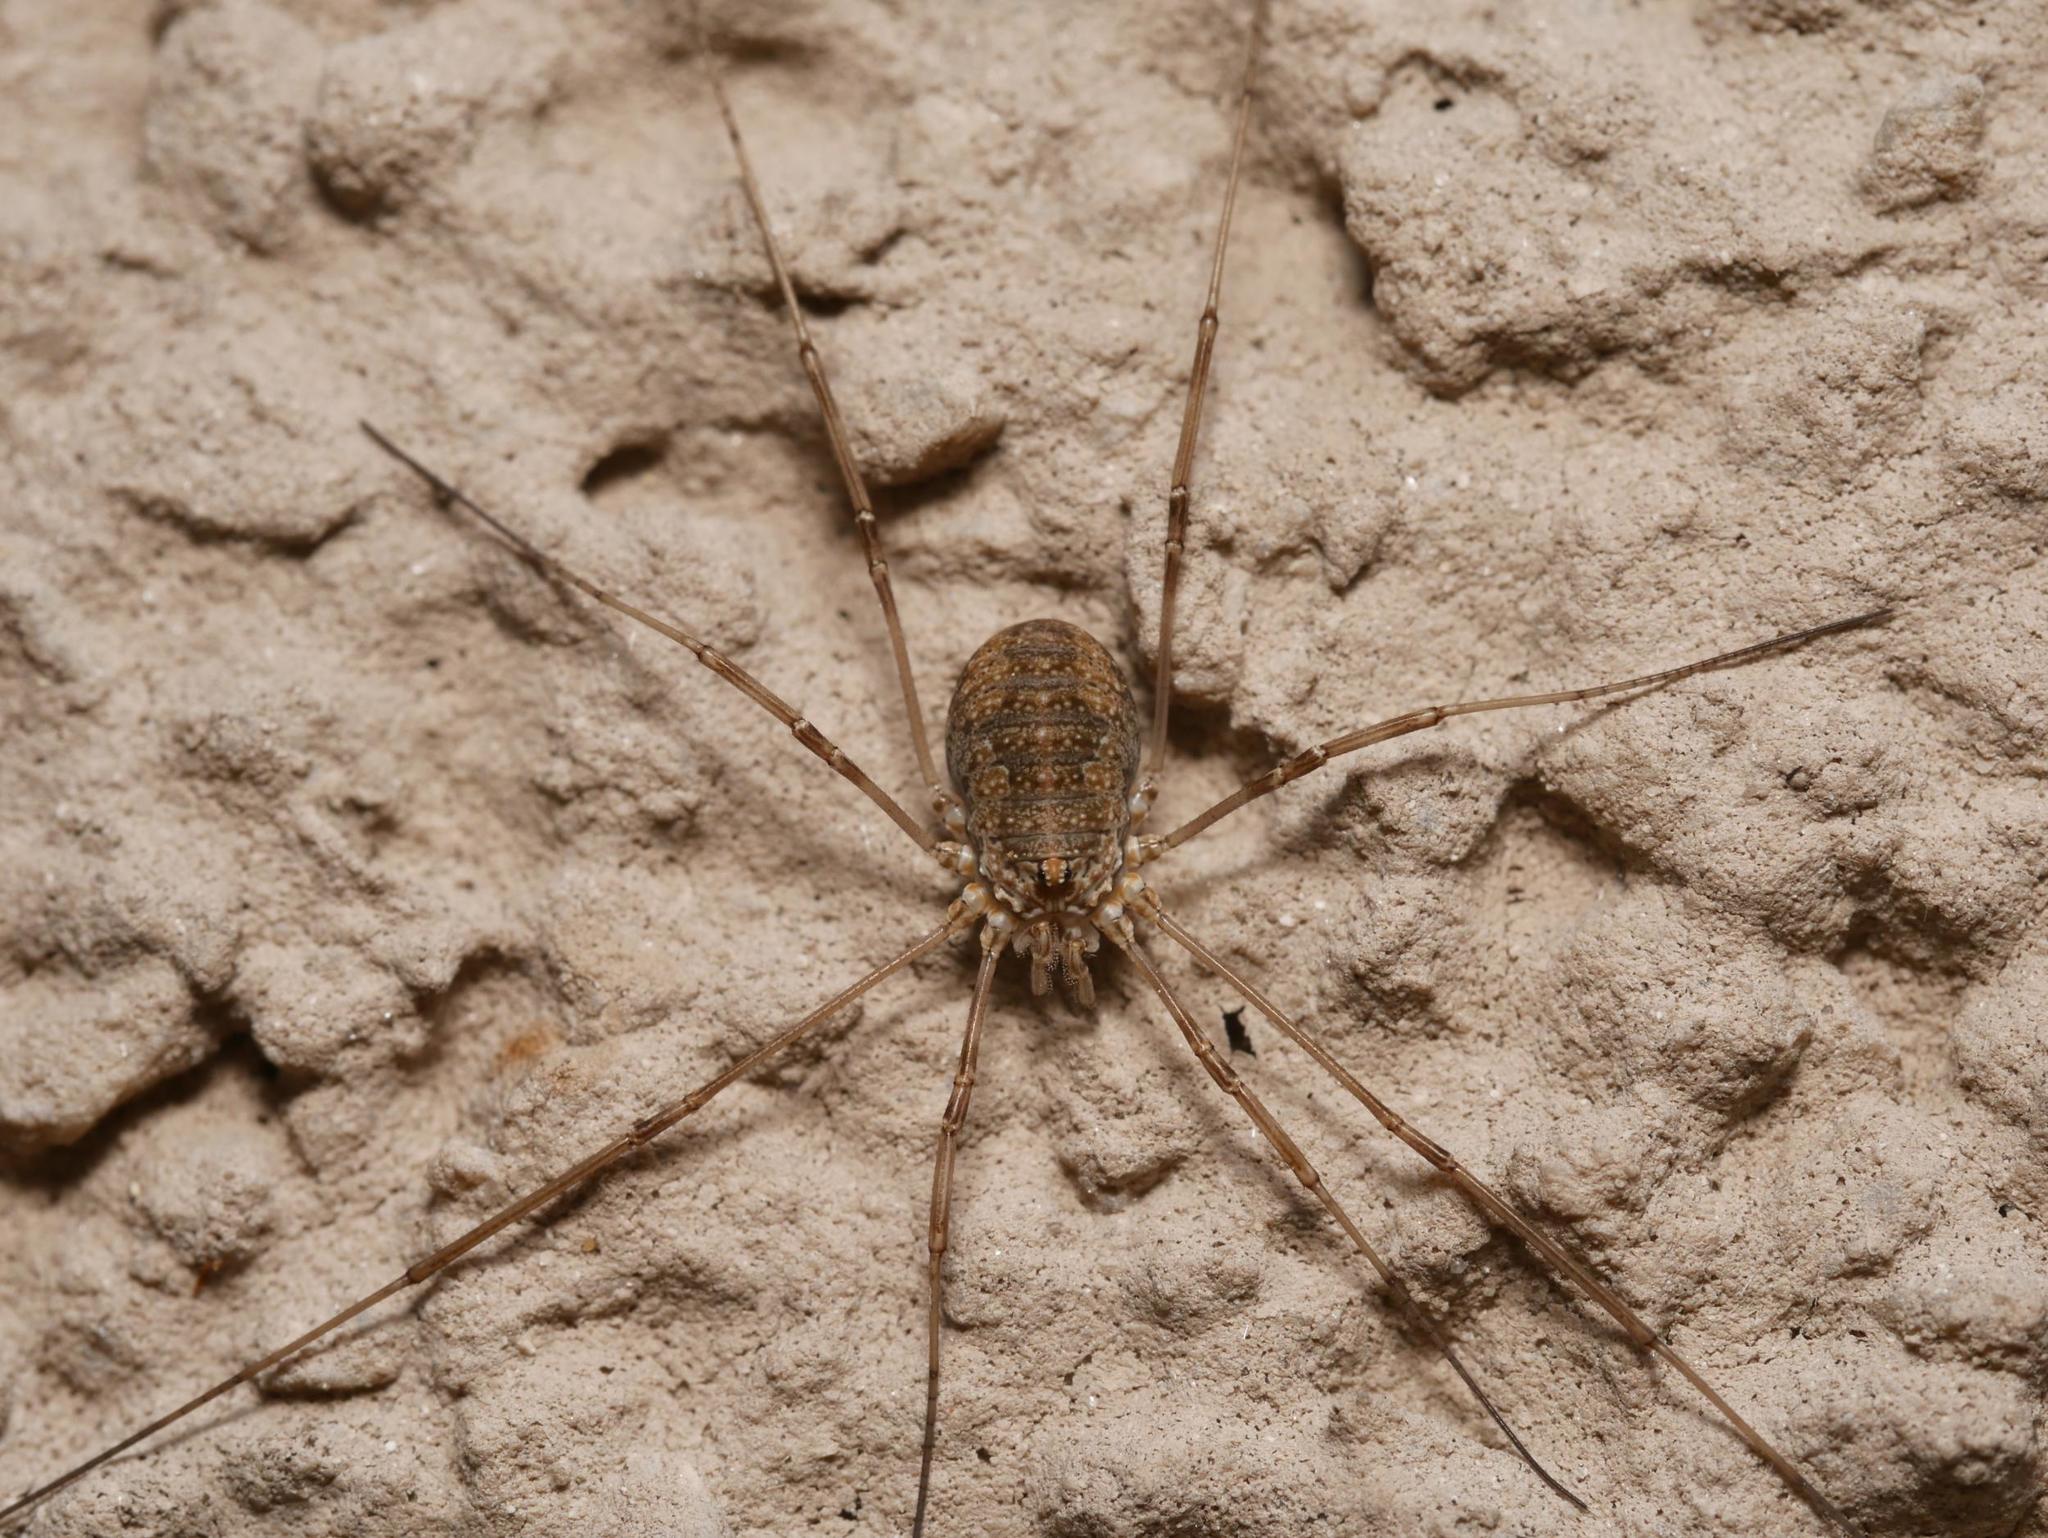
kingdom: Animalia
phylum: Arthropoda
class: Arachnida
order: Opiliones
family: Phalangiidae
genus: Phalangium
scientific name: Phalangium opilio
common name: Daddy longleg
